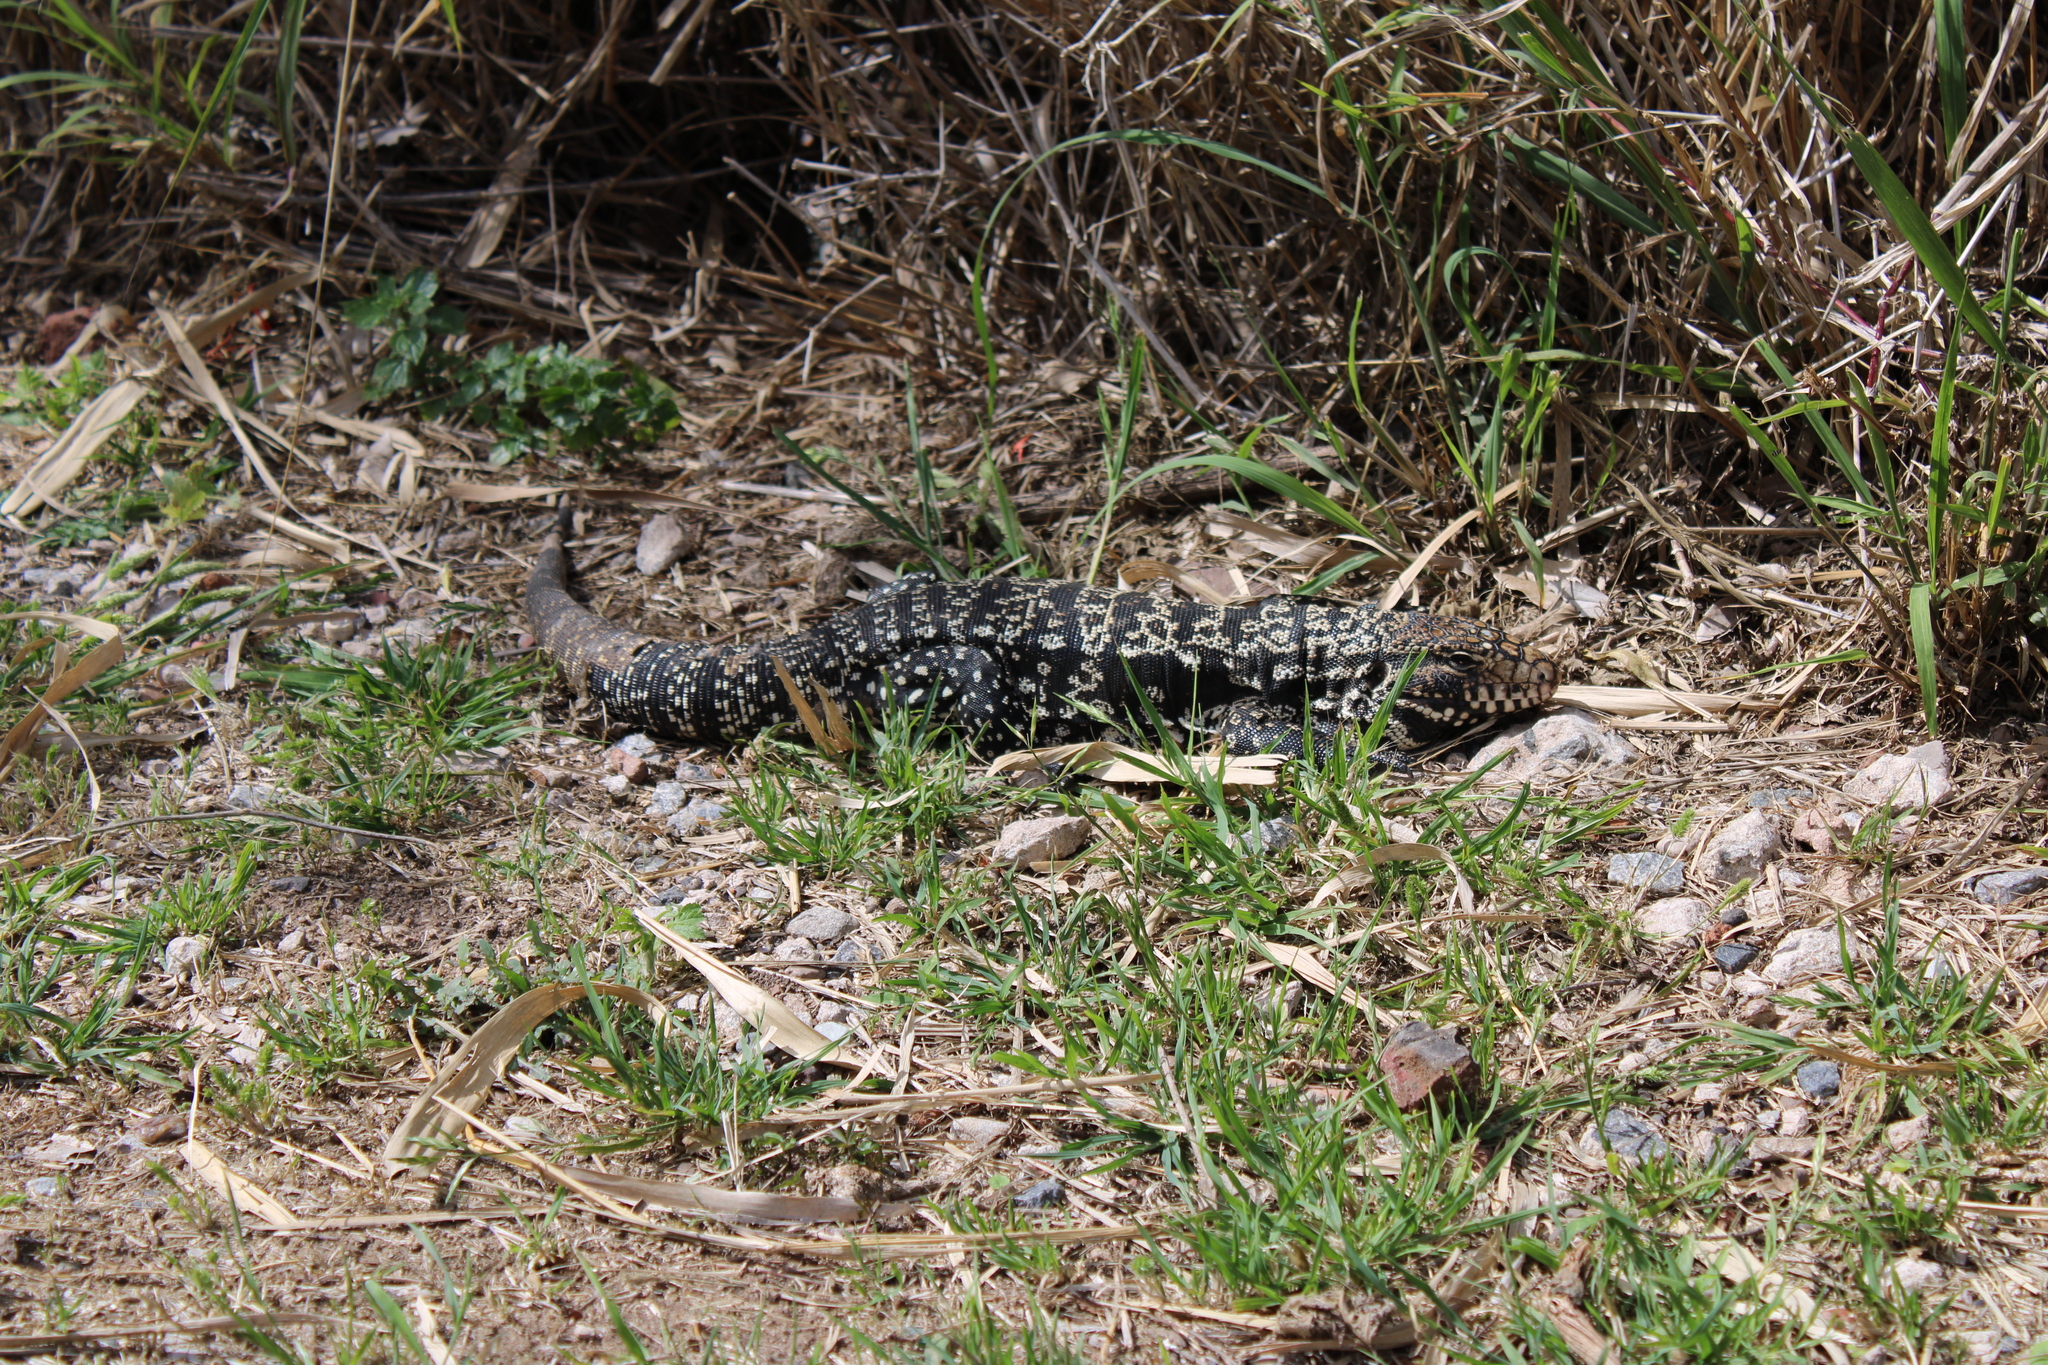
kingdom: Animalia
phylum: Chordata
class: Squamata
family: Teiidae
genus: Salvator
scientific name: Salvator merianae
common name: Argentine black and white tegu
